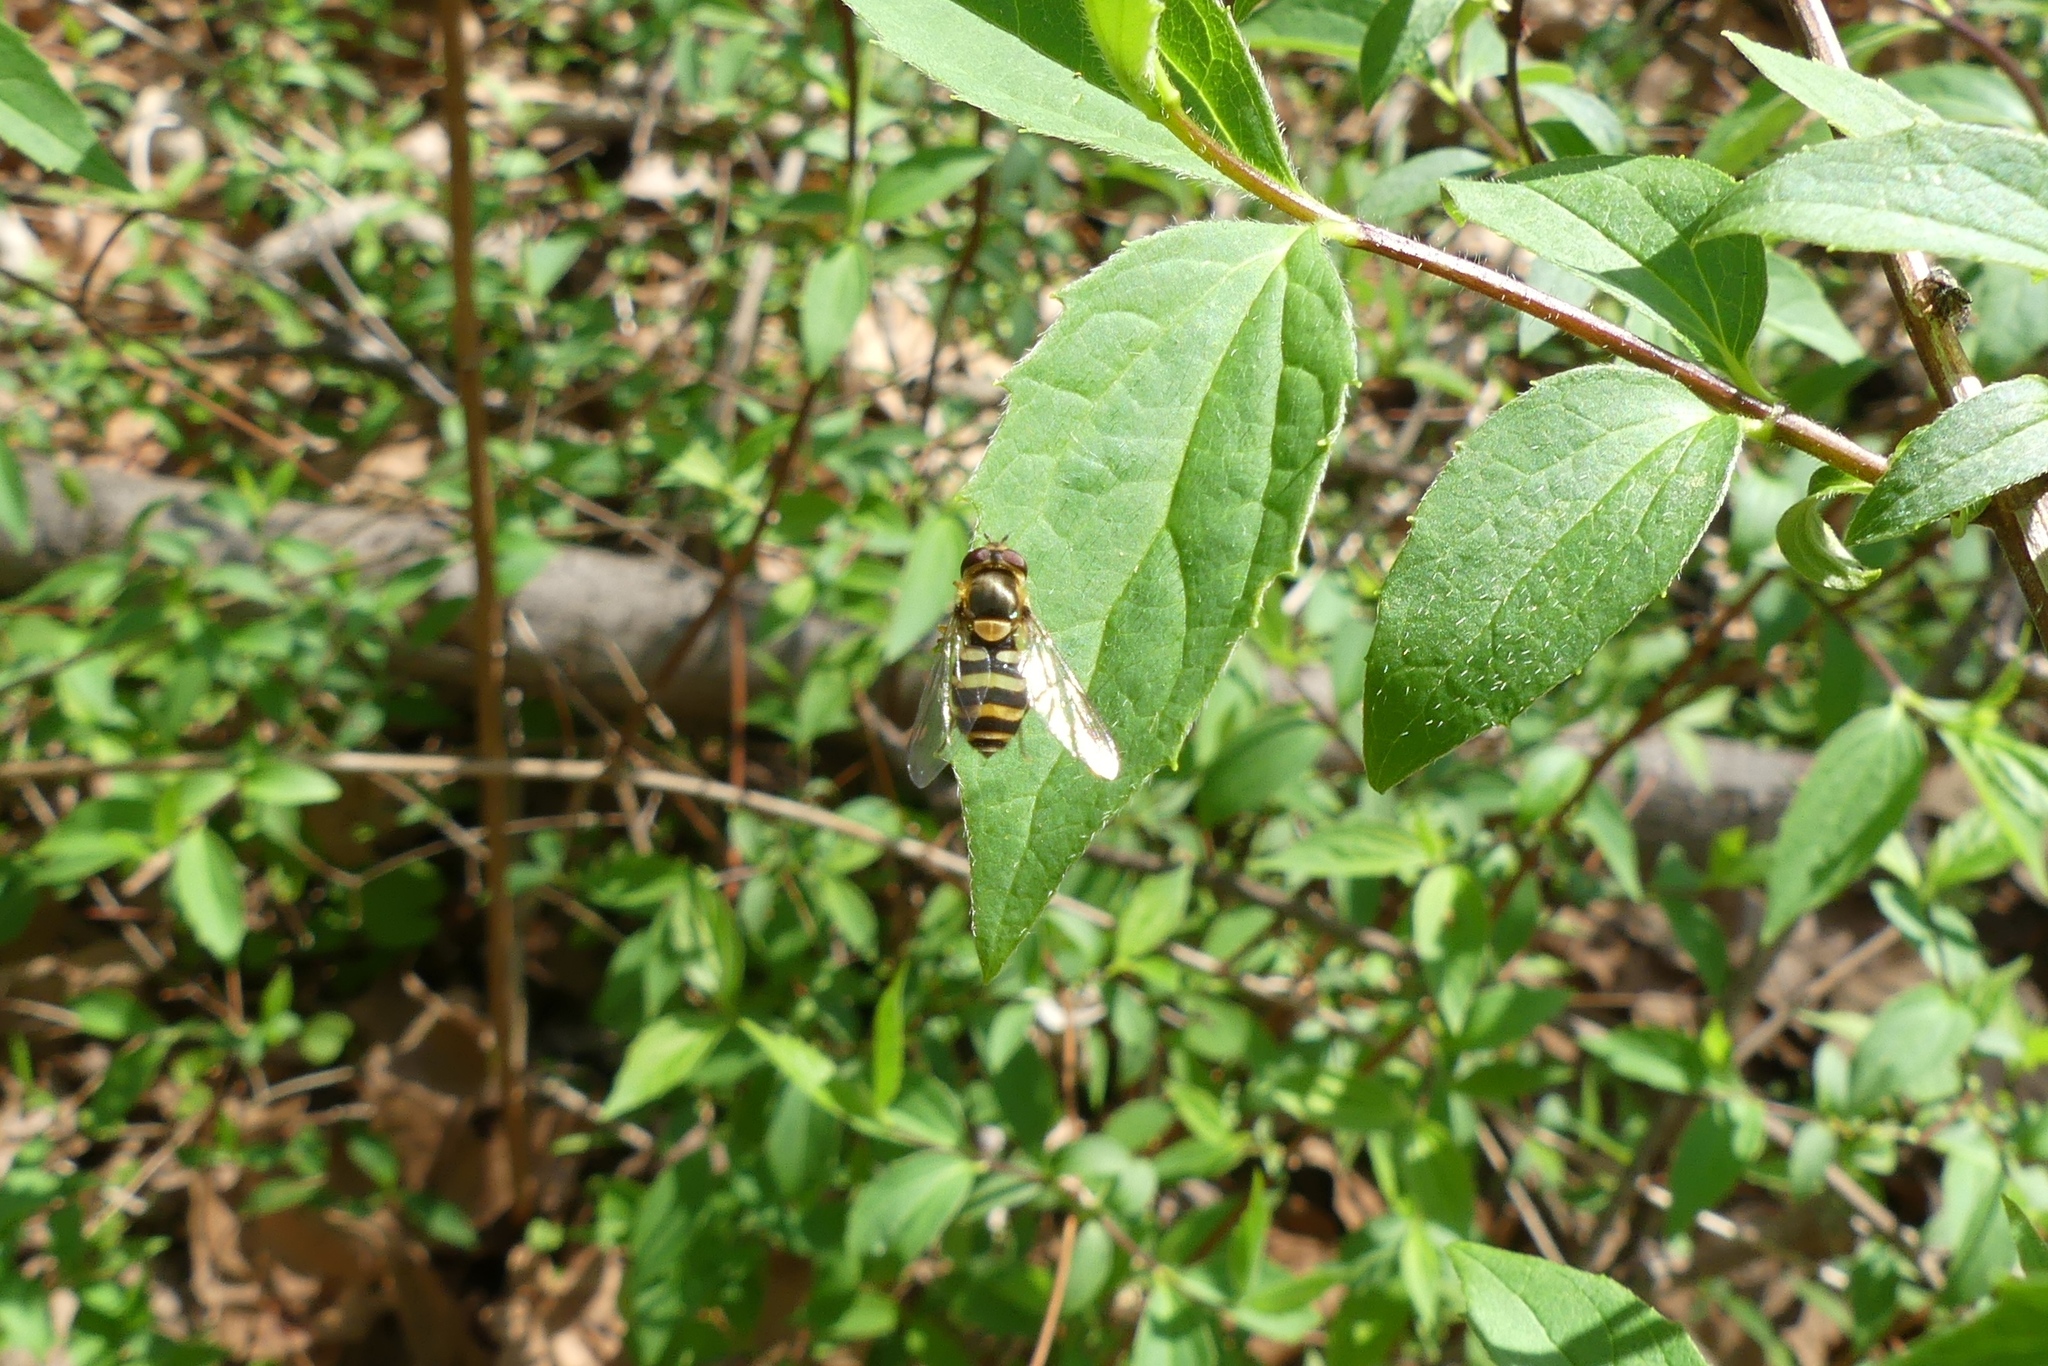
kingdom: Animalia
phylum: Arthropoda
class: Insecta
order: Diptera
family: Syrphidae
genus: Syrphus
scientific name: Syrphus rectus
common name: Yellow-legged flower fly
